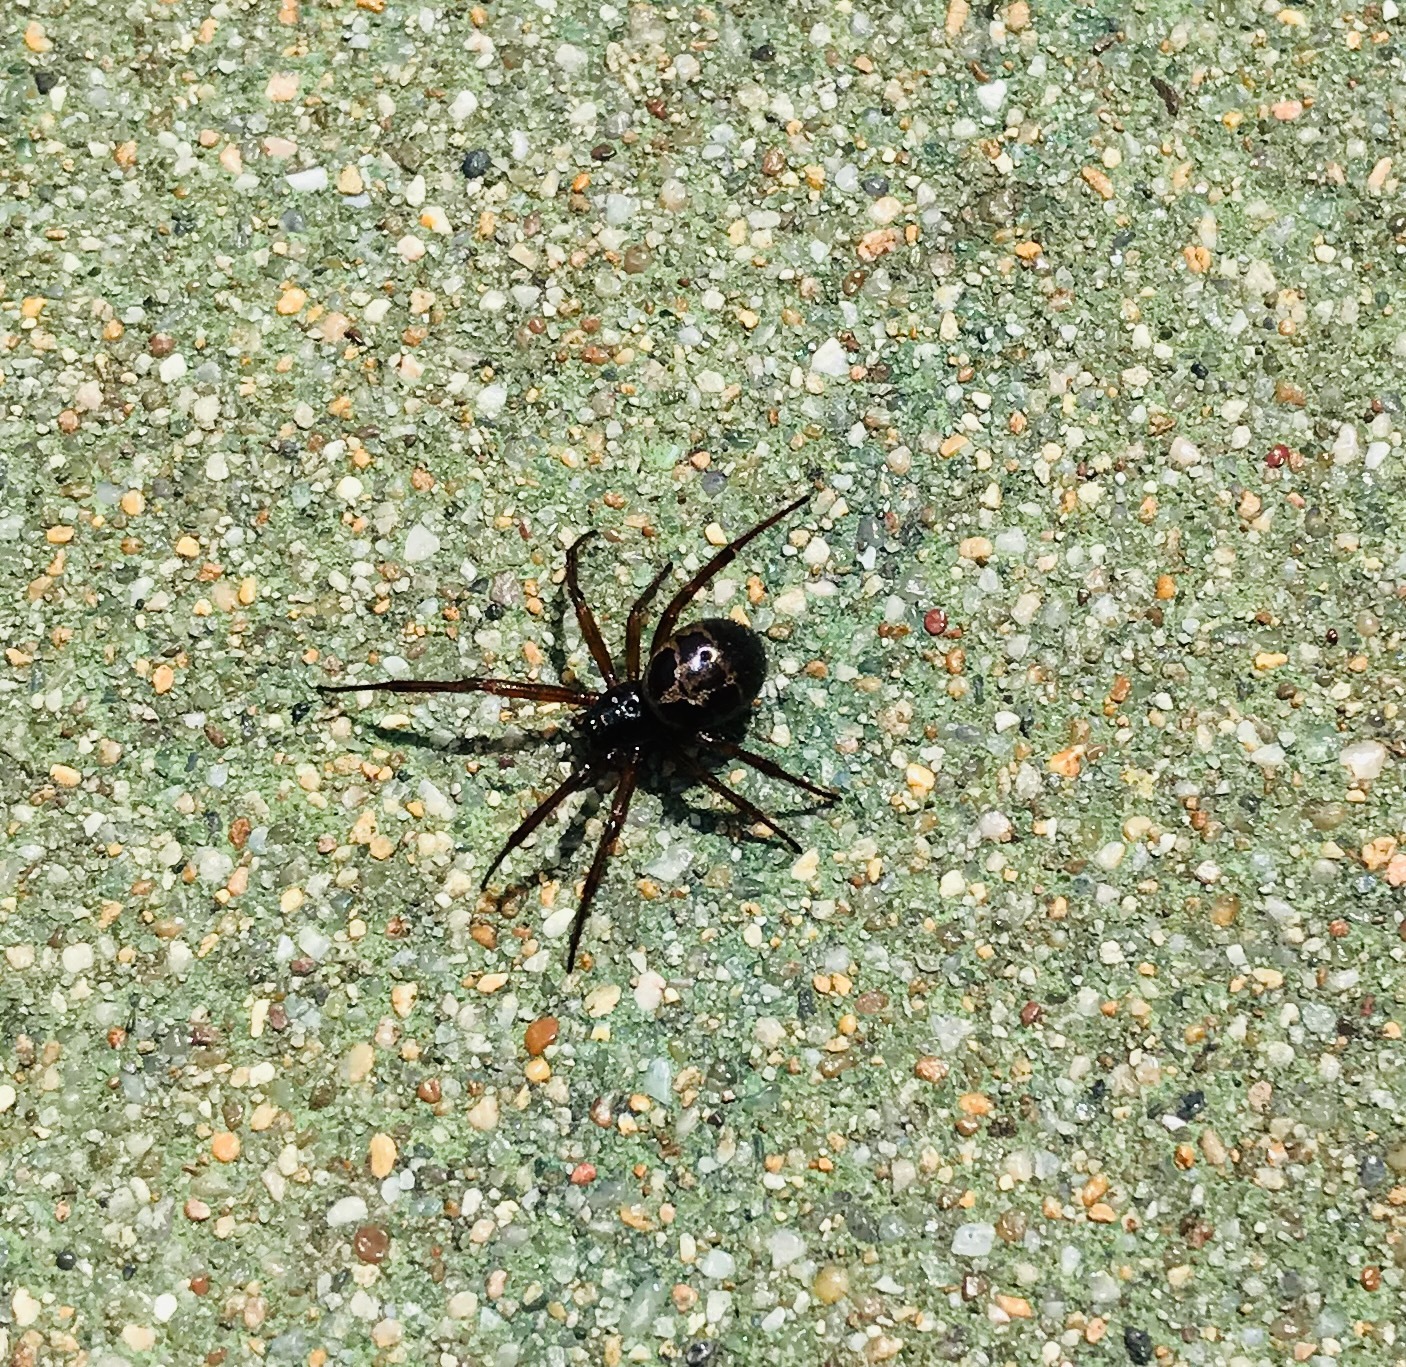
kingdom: Animalia
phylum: Arthropoda
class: Arachnida
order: Araneae
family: Theridiidae
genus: Steatoda
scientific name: Steatoda nobilis
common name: Cobweb weaver
